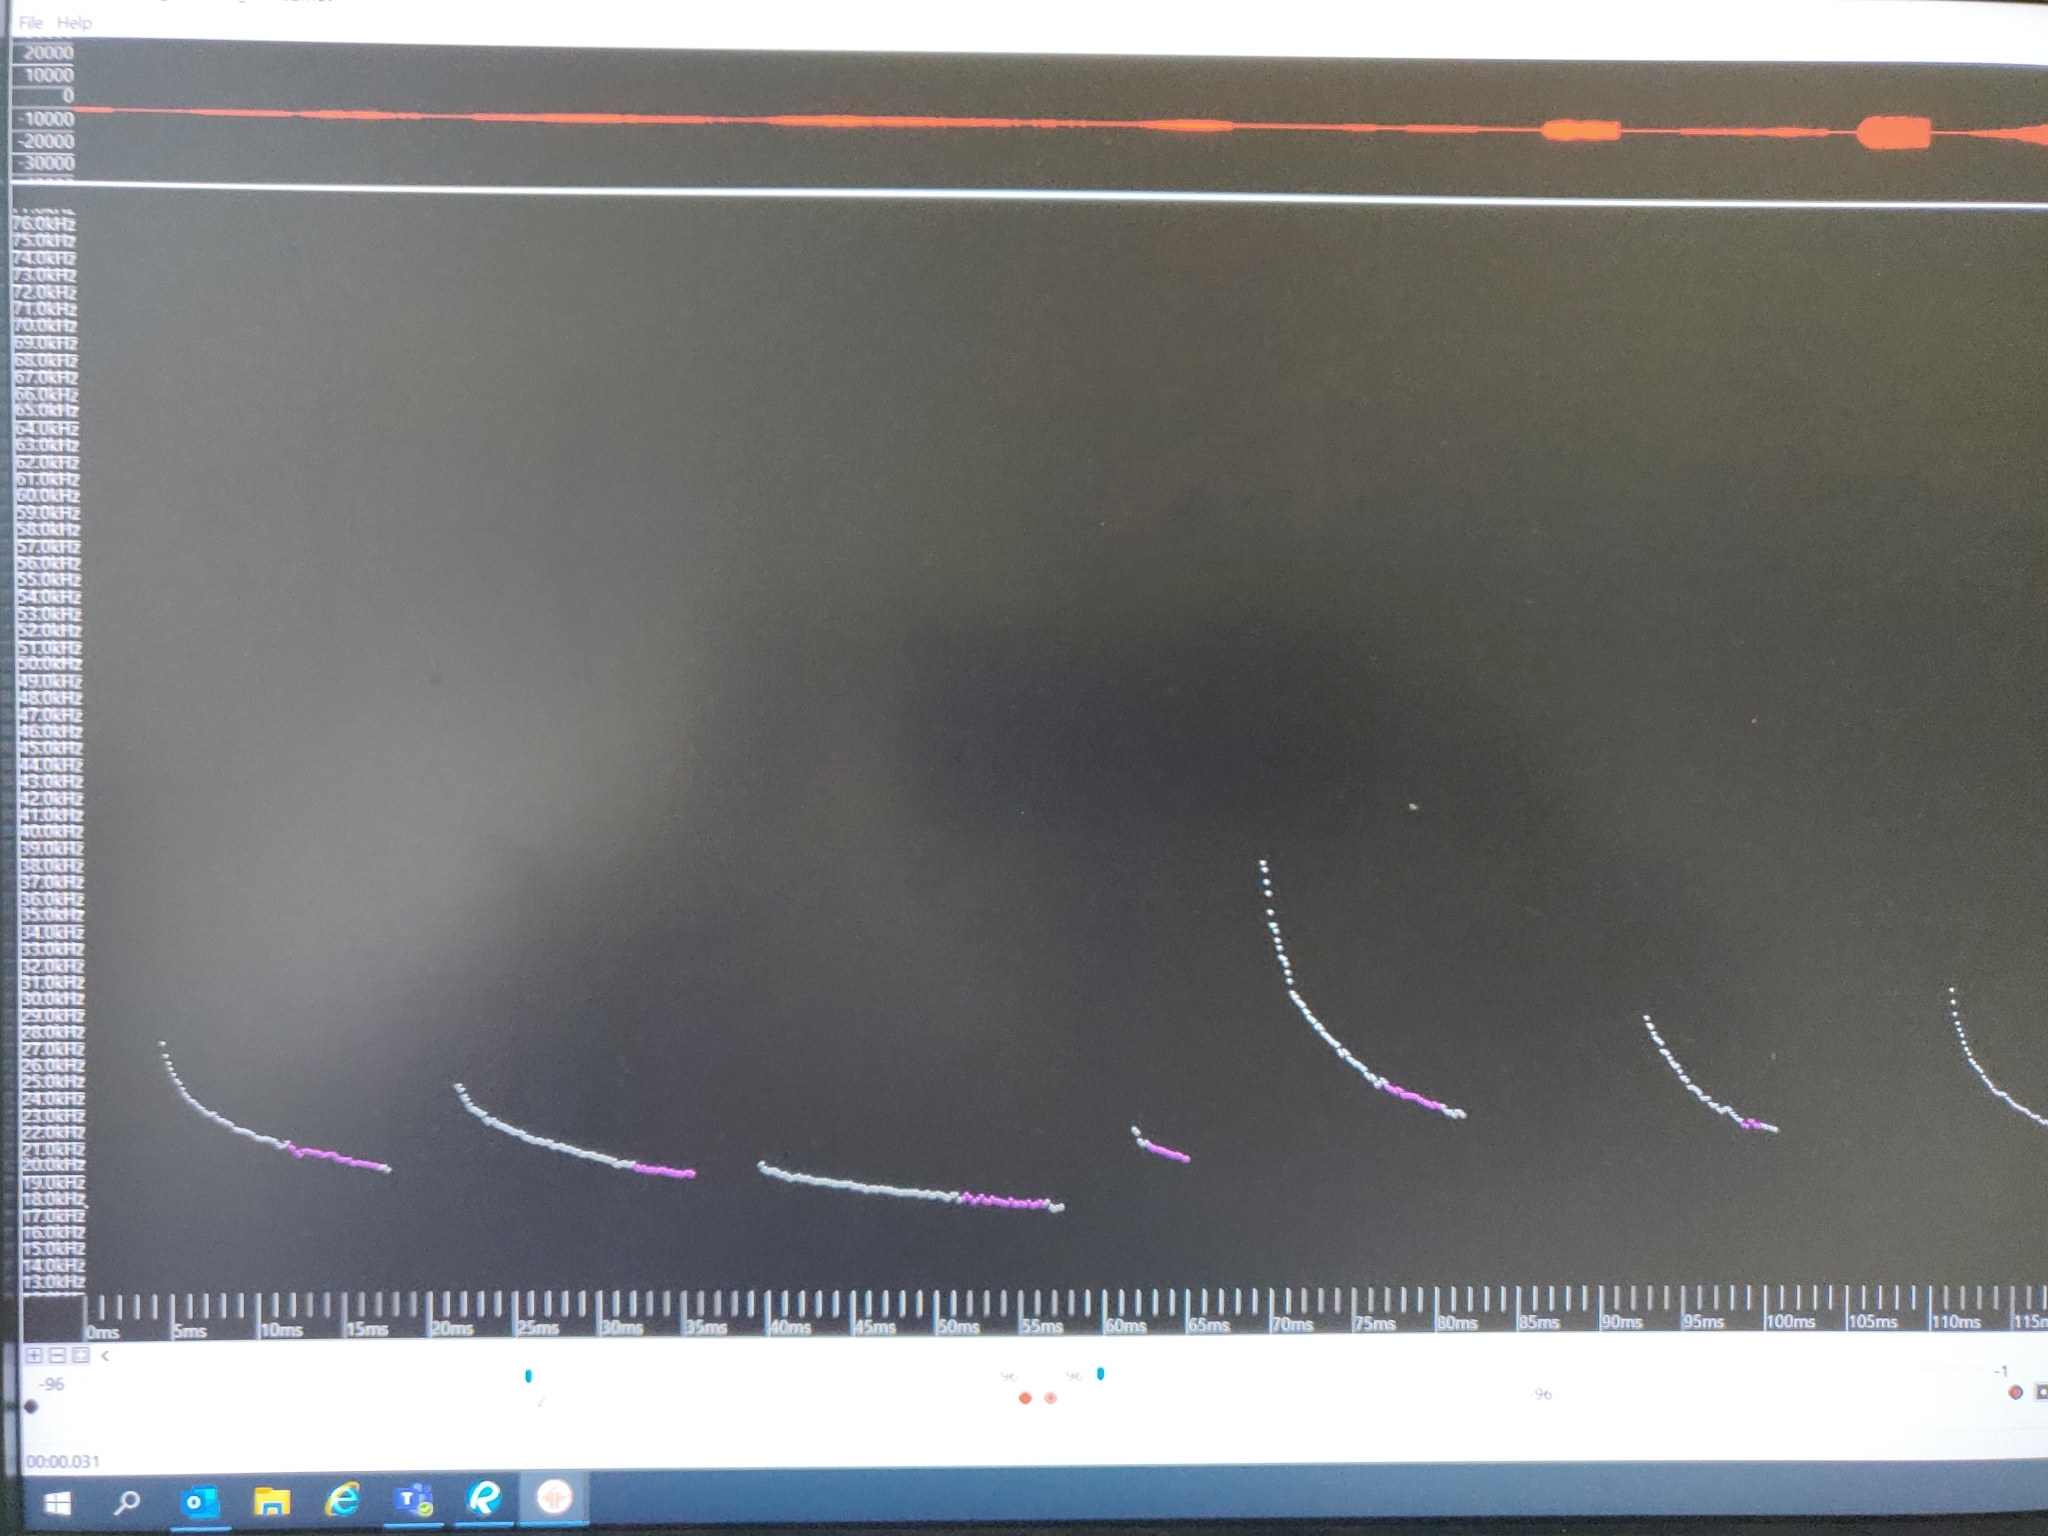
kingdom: Animalia
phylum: Chordata
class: Mammalia
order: Chiroptera
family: Vespertilionidae
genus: Nyctalus
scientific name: Nyctalus noctula
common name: Noctule
